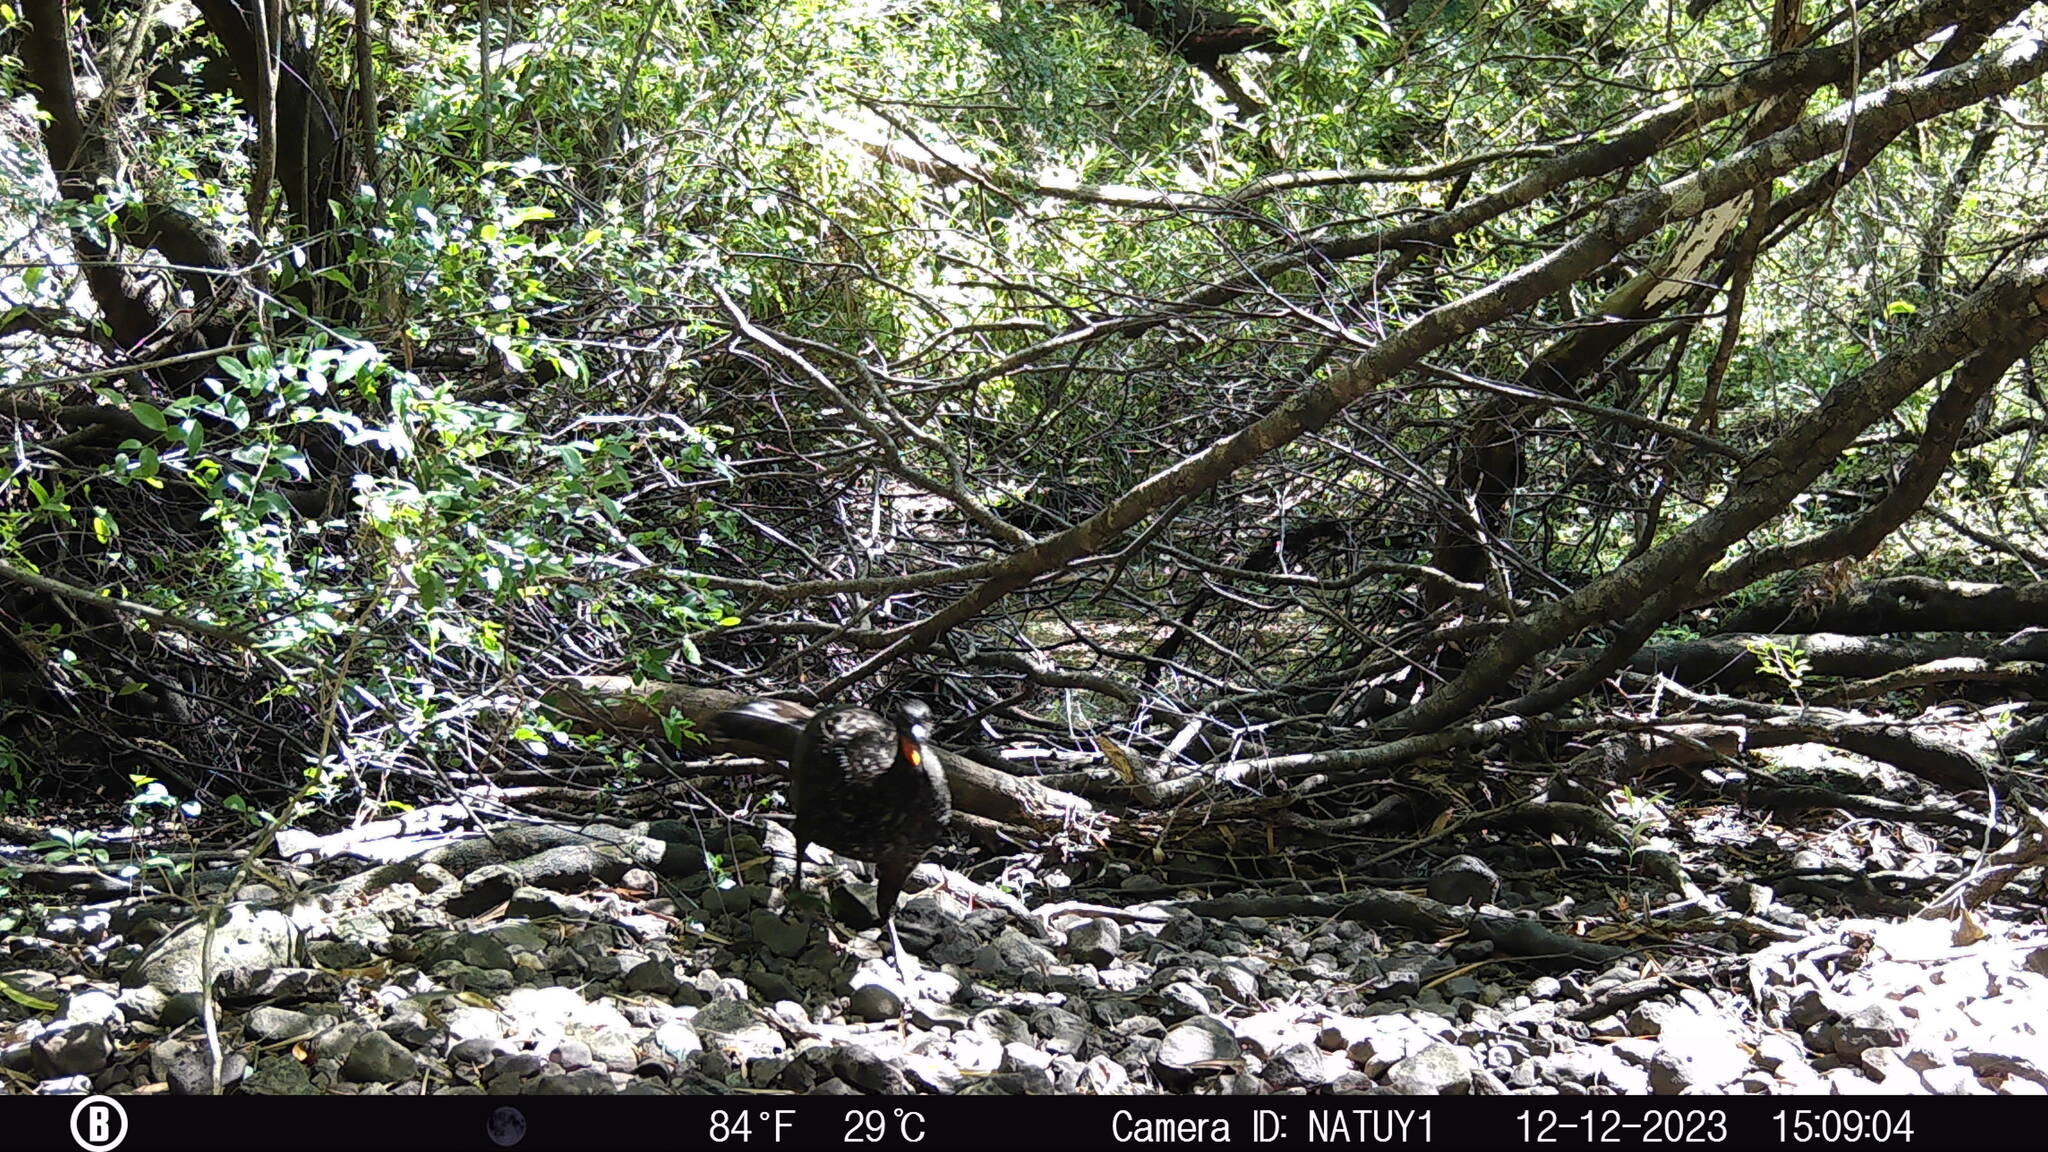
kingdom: Animalia
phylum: Chordata
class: Aves
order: Galliformes
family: Cracidae
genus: Penelope
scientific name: Penelope obscura
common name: Dusky-legged guan
